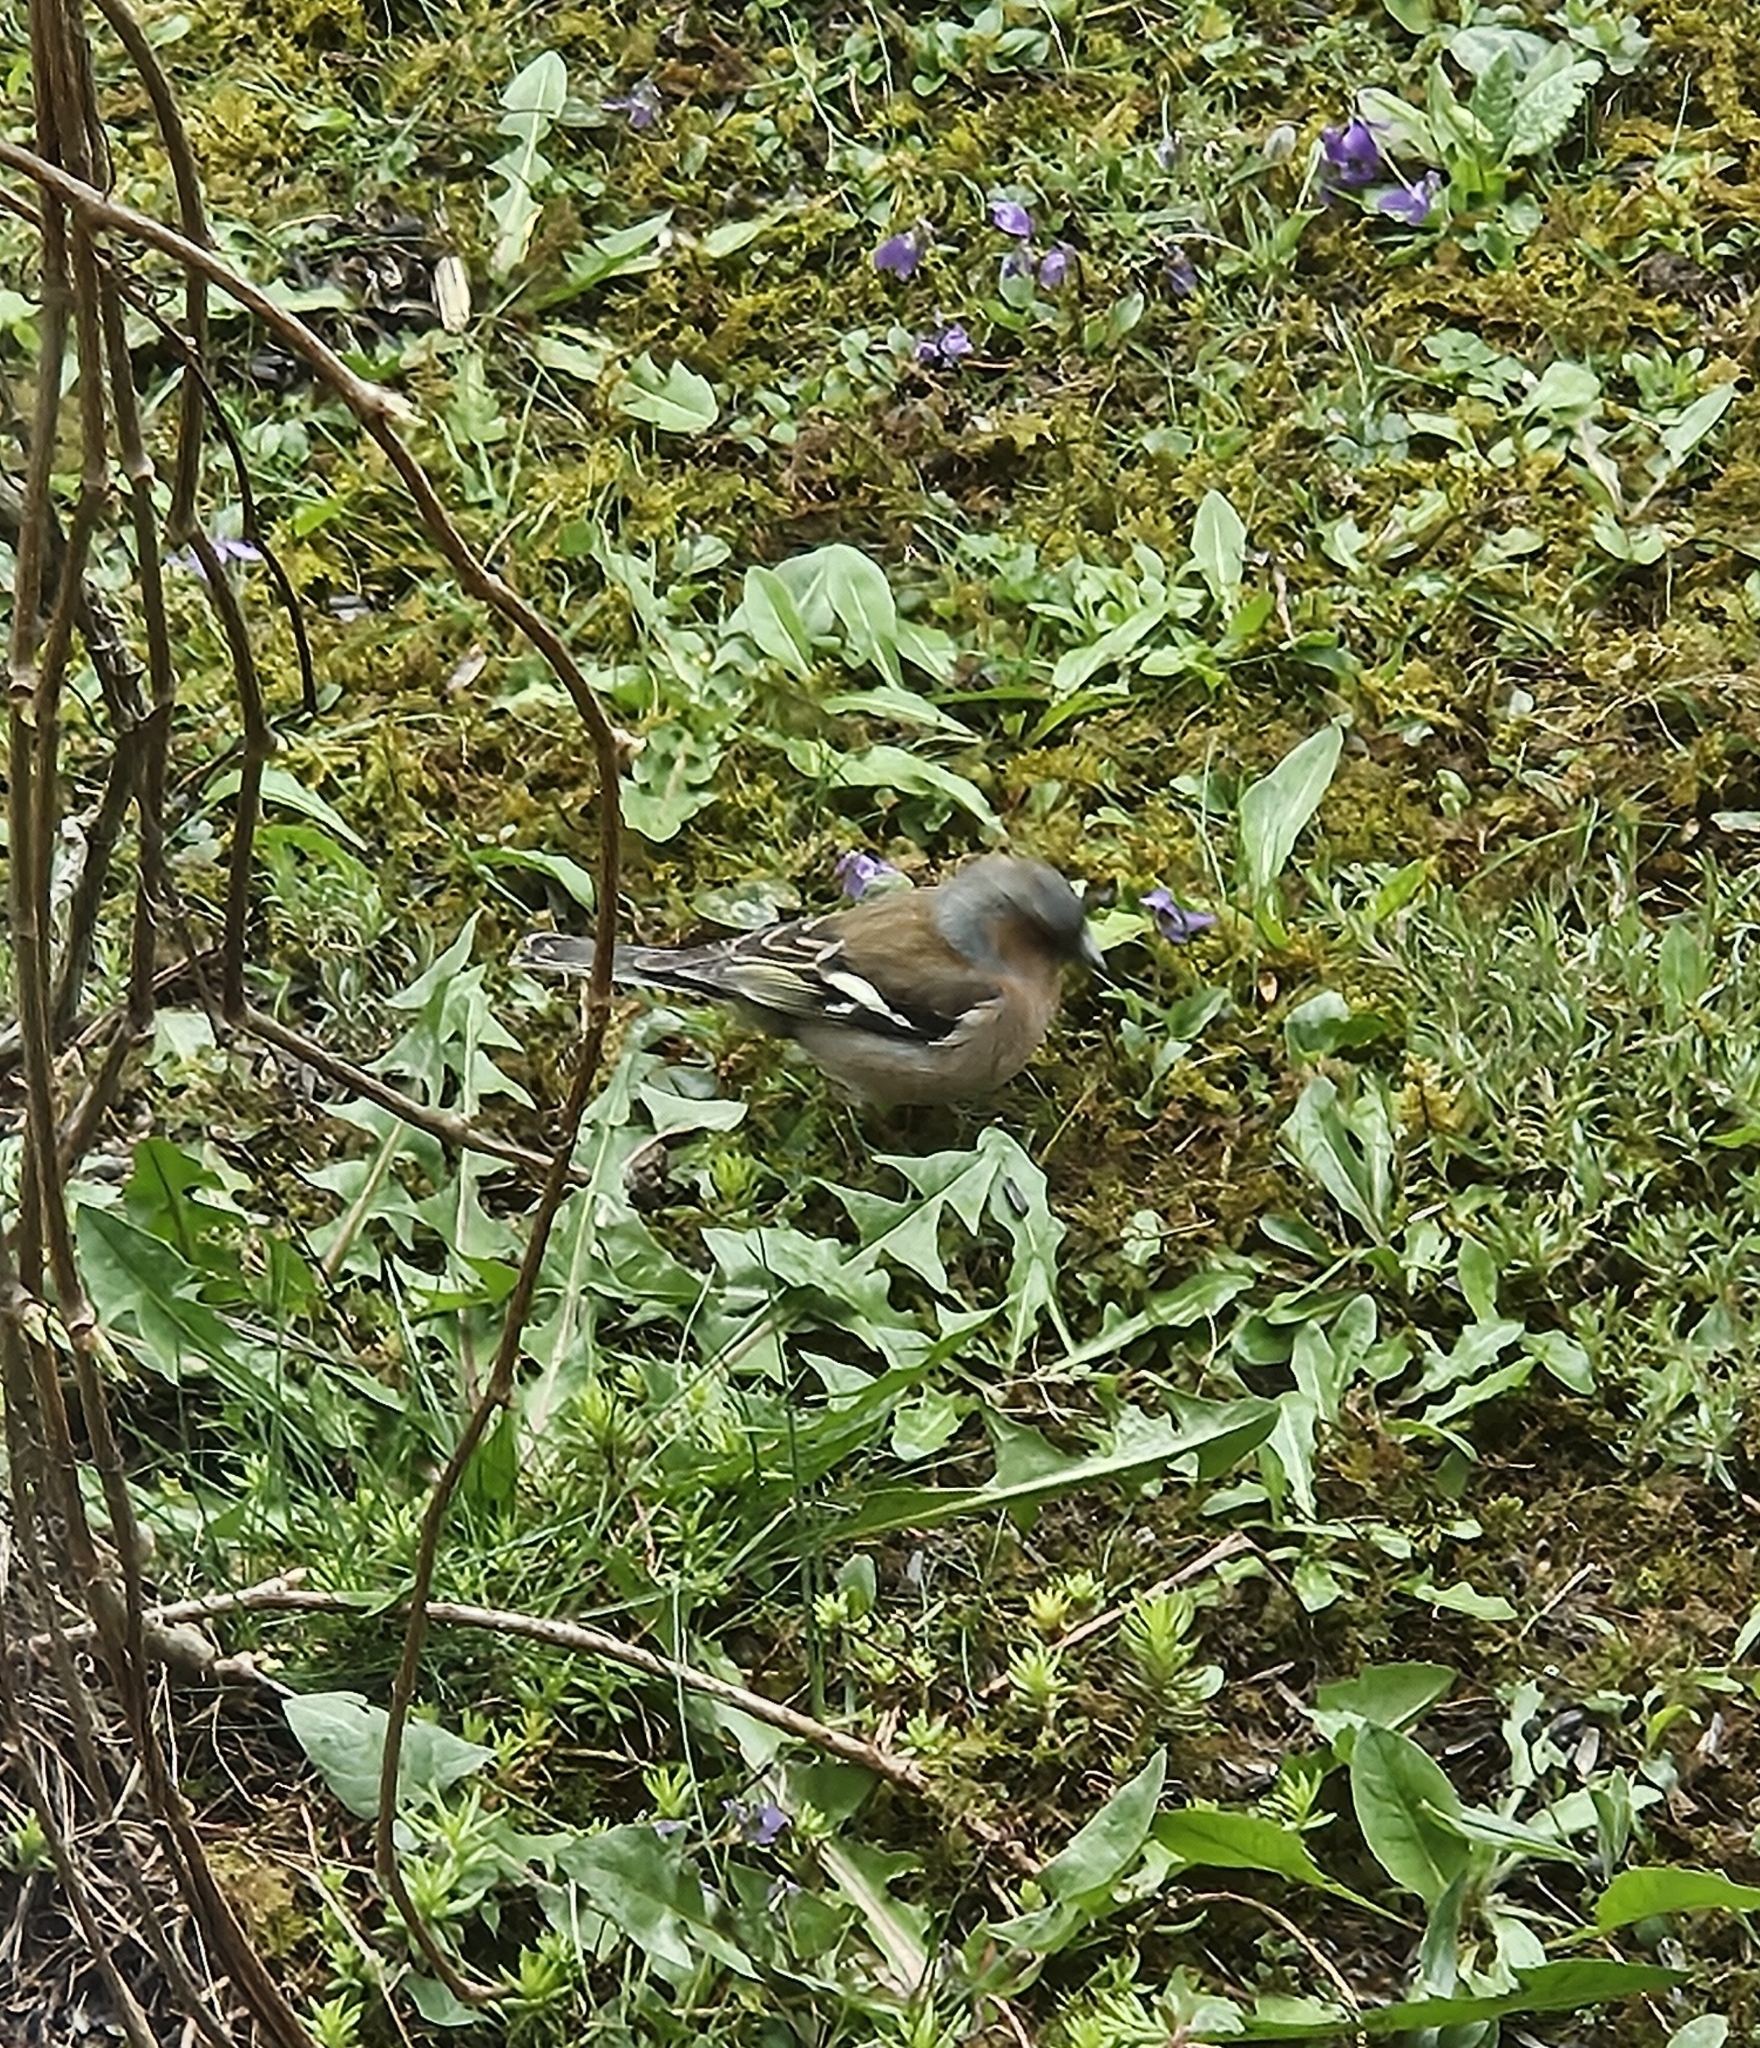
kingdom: Animalia
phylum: Chordata
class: Aves
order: Passeriformes
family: Fringillidae
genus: Fringilla
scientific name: Fringilla coelebs
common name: Common chaffinch
